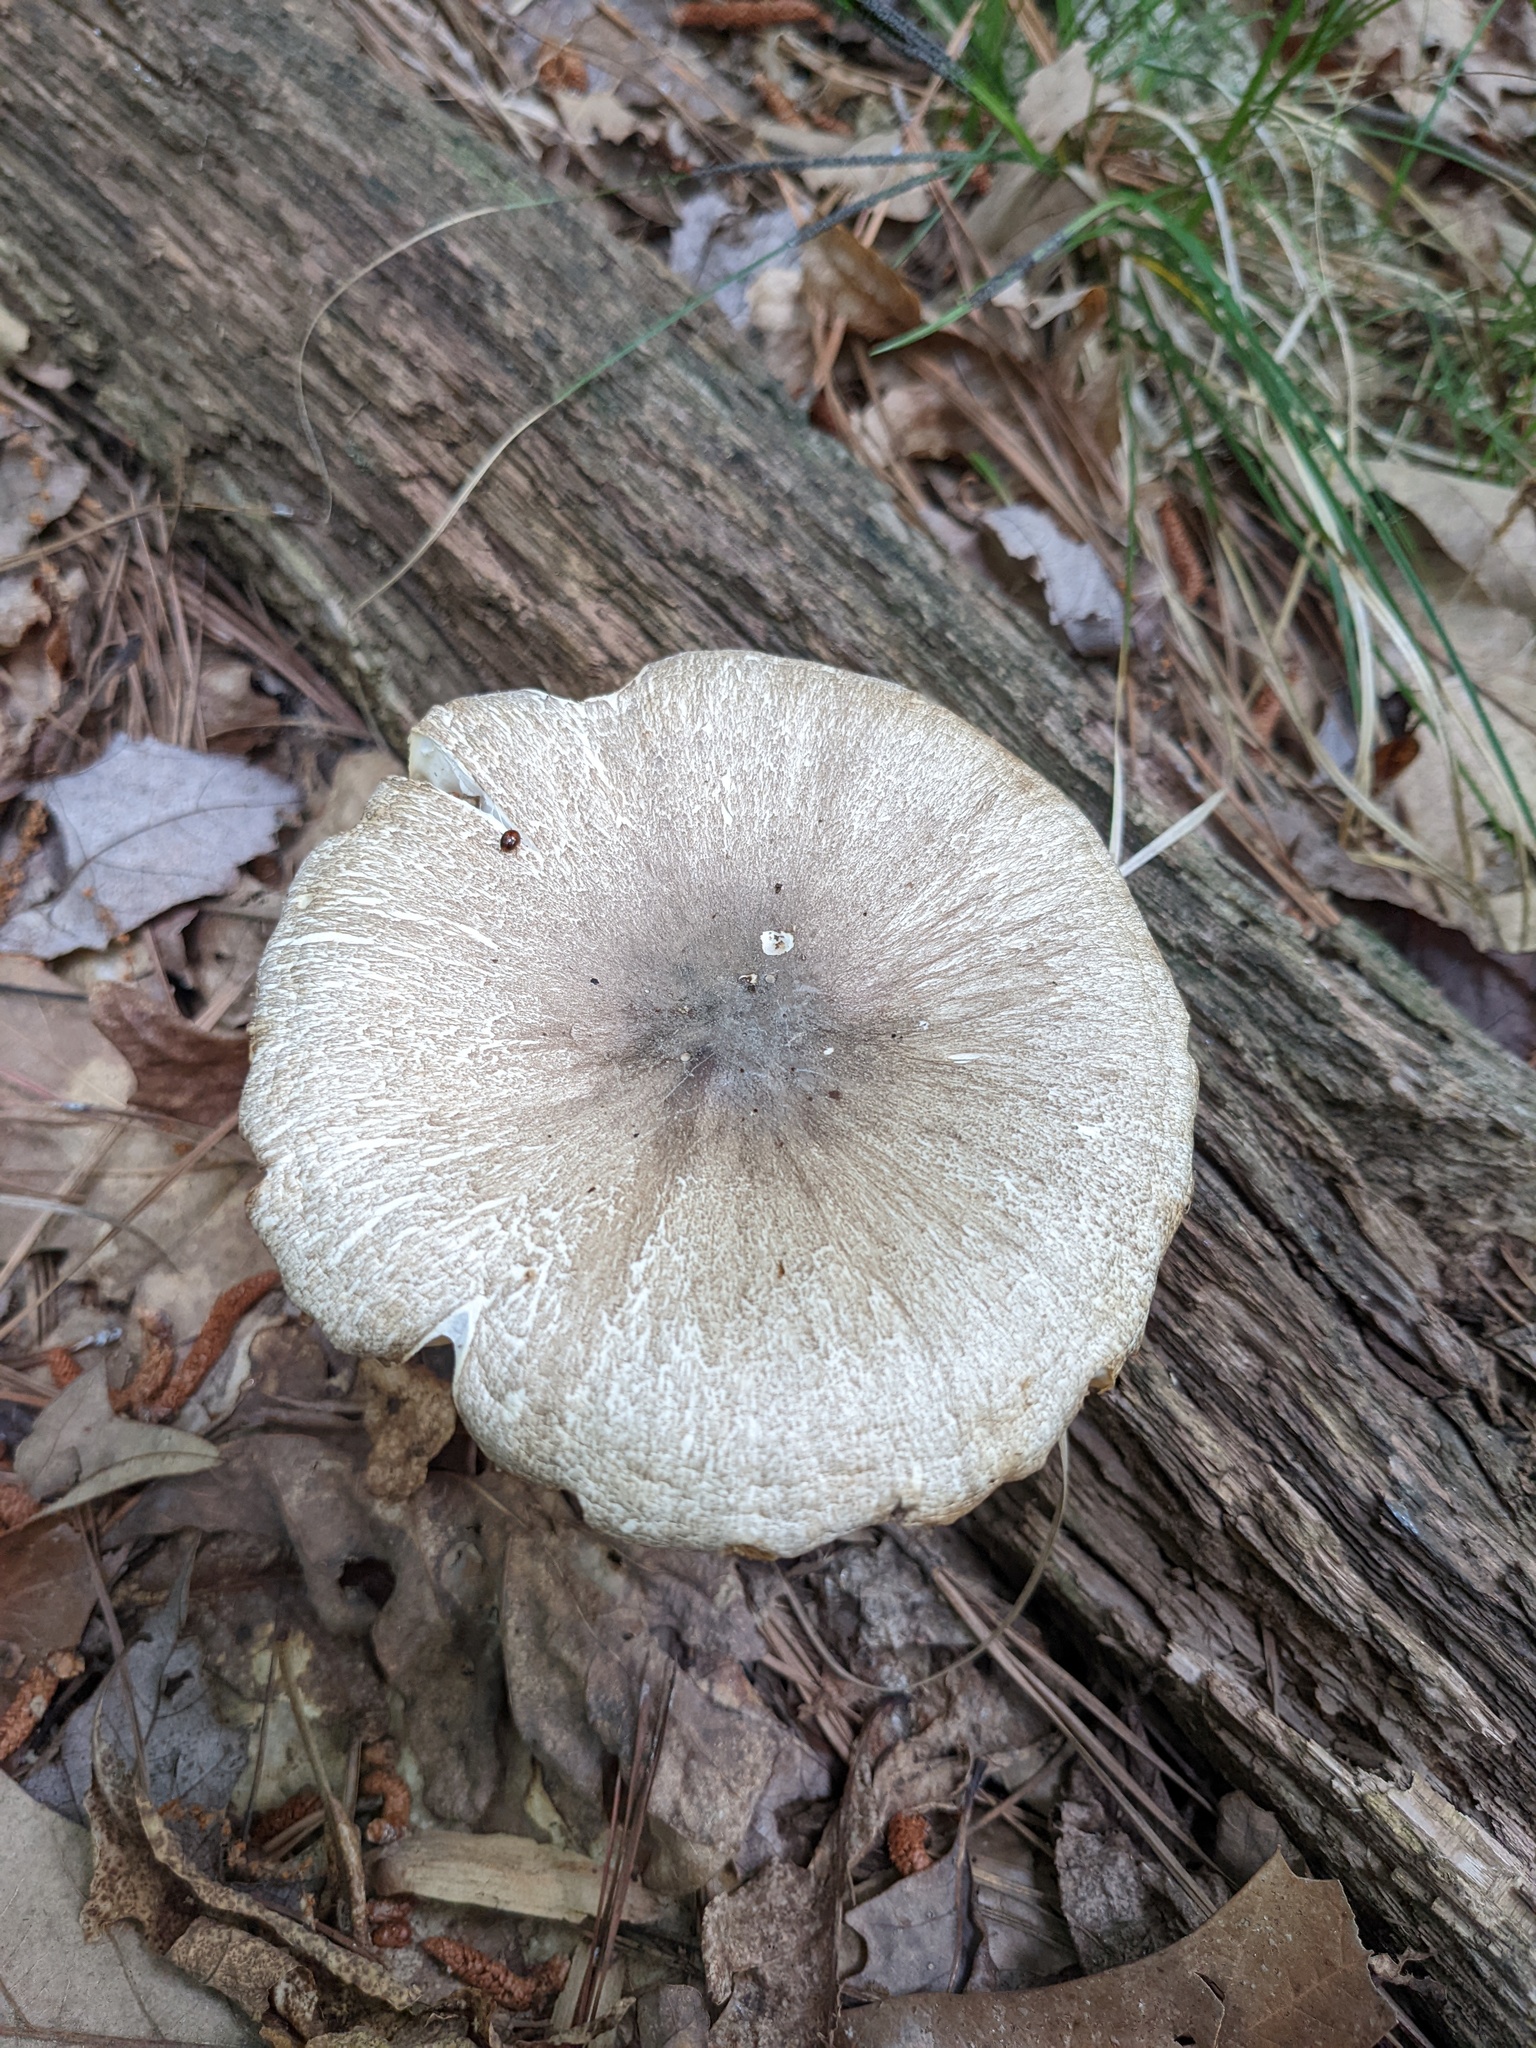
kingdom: Fungi
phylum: Basidiomycota
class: Agaricomycetes
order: Agaricales
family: Tricholomataceae
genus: Megacollybia
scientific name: Megacollybia rodmanii
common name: Eastern american platterful mushroom
